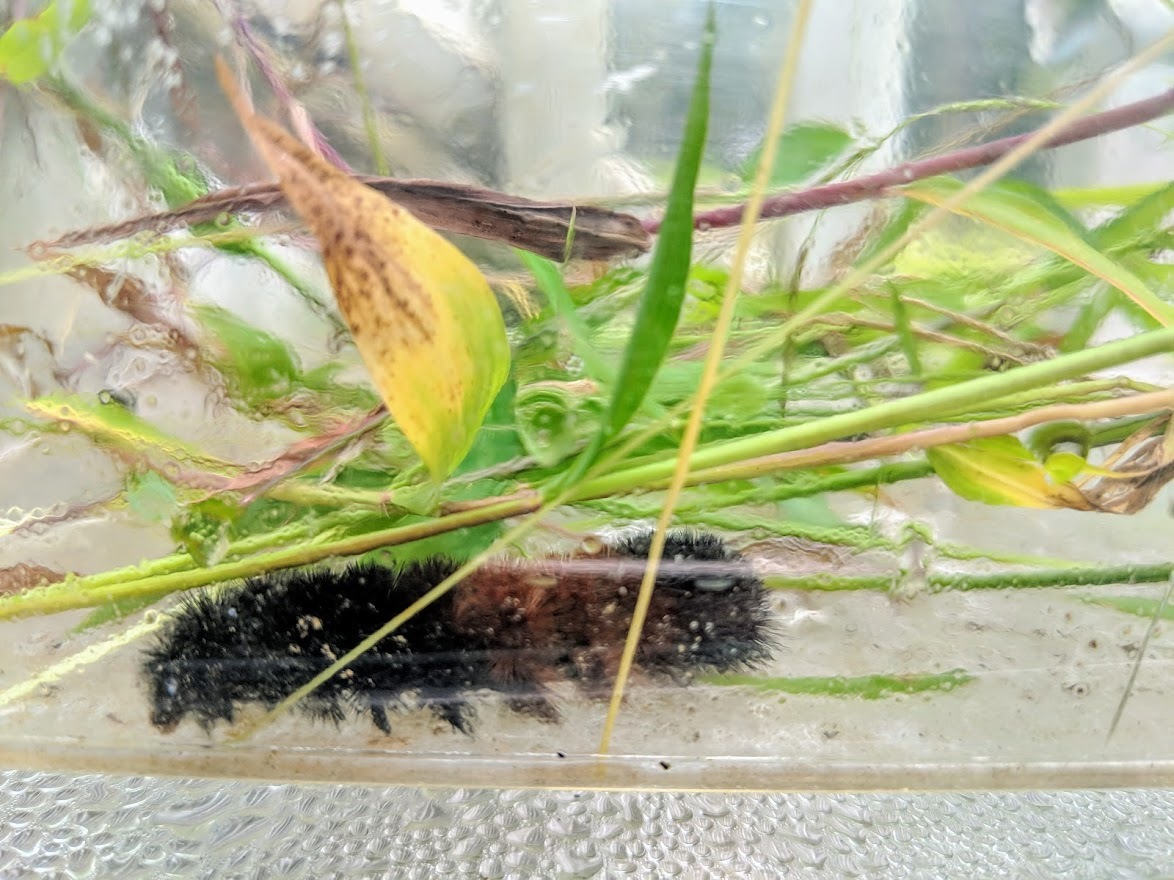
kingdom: Animalia
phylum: Arthropoda
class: Insecta
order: Lepidoptera
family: Erebidae
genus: Pyrrharctia
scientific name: Pyrrharctia isabella
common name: Isabella tiger moth
